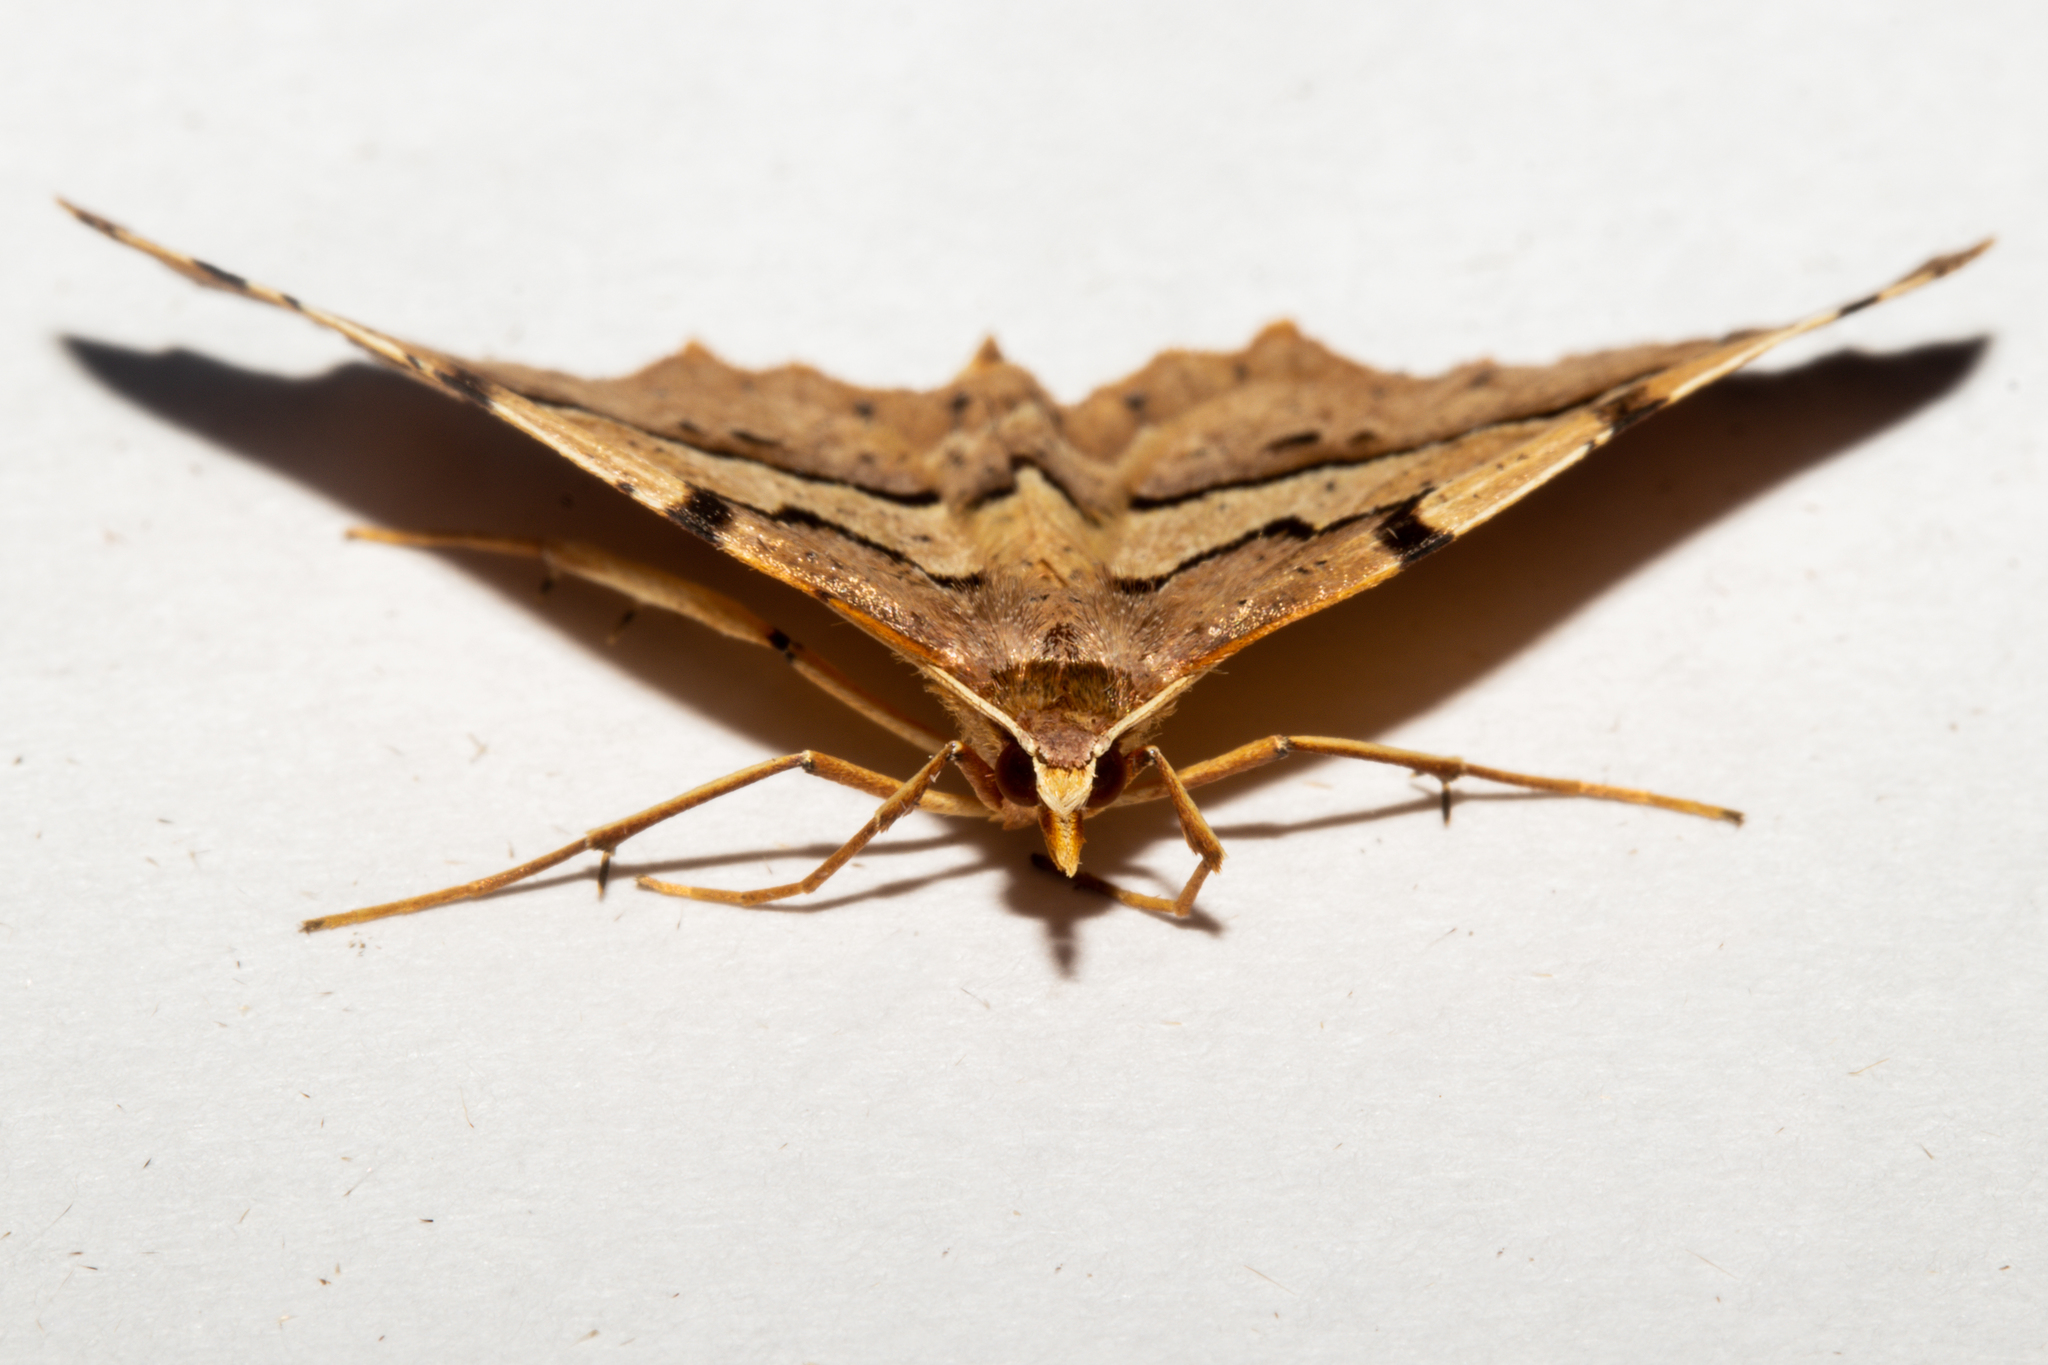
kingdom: Animalia
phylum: Arthropoda
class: Insecta
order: Lepidoptera
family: Geometridae
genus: Ischalis
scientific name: Ischalis fortinata
